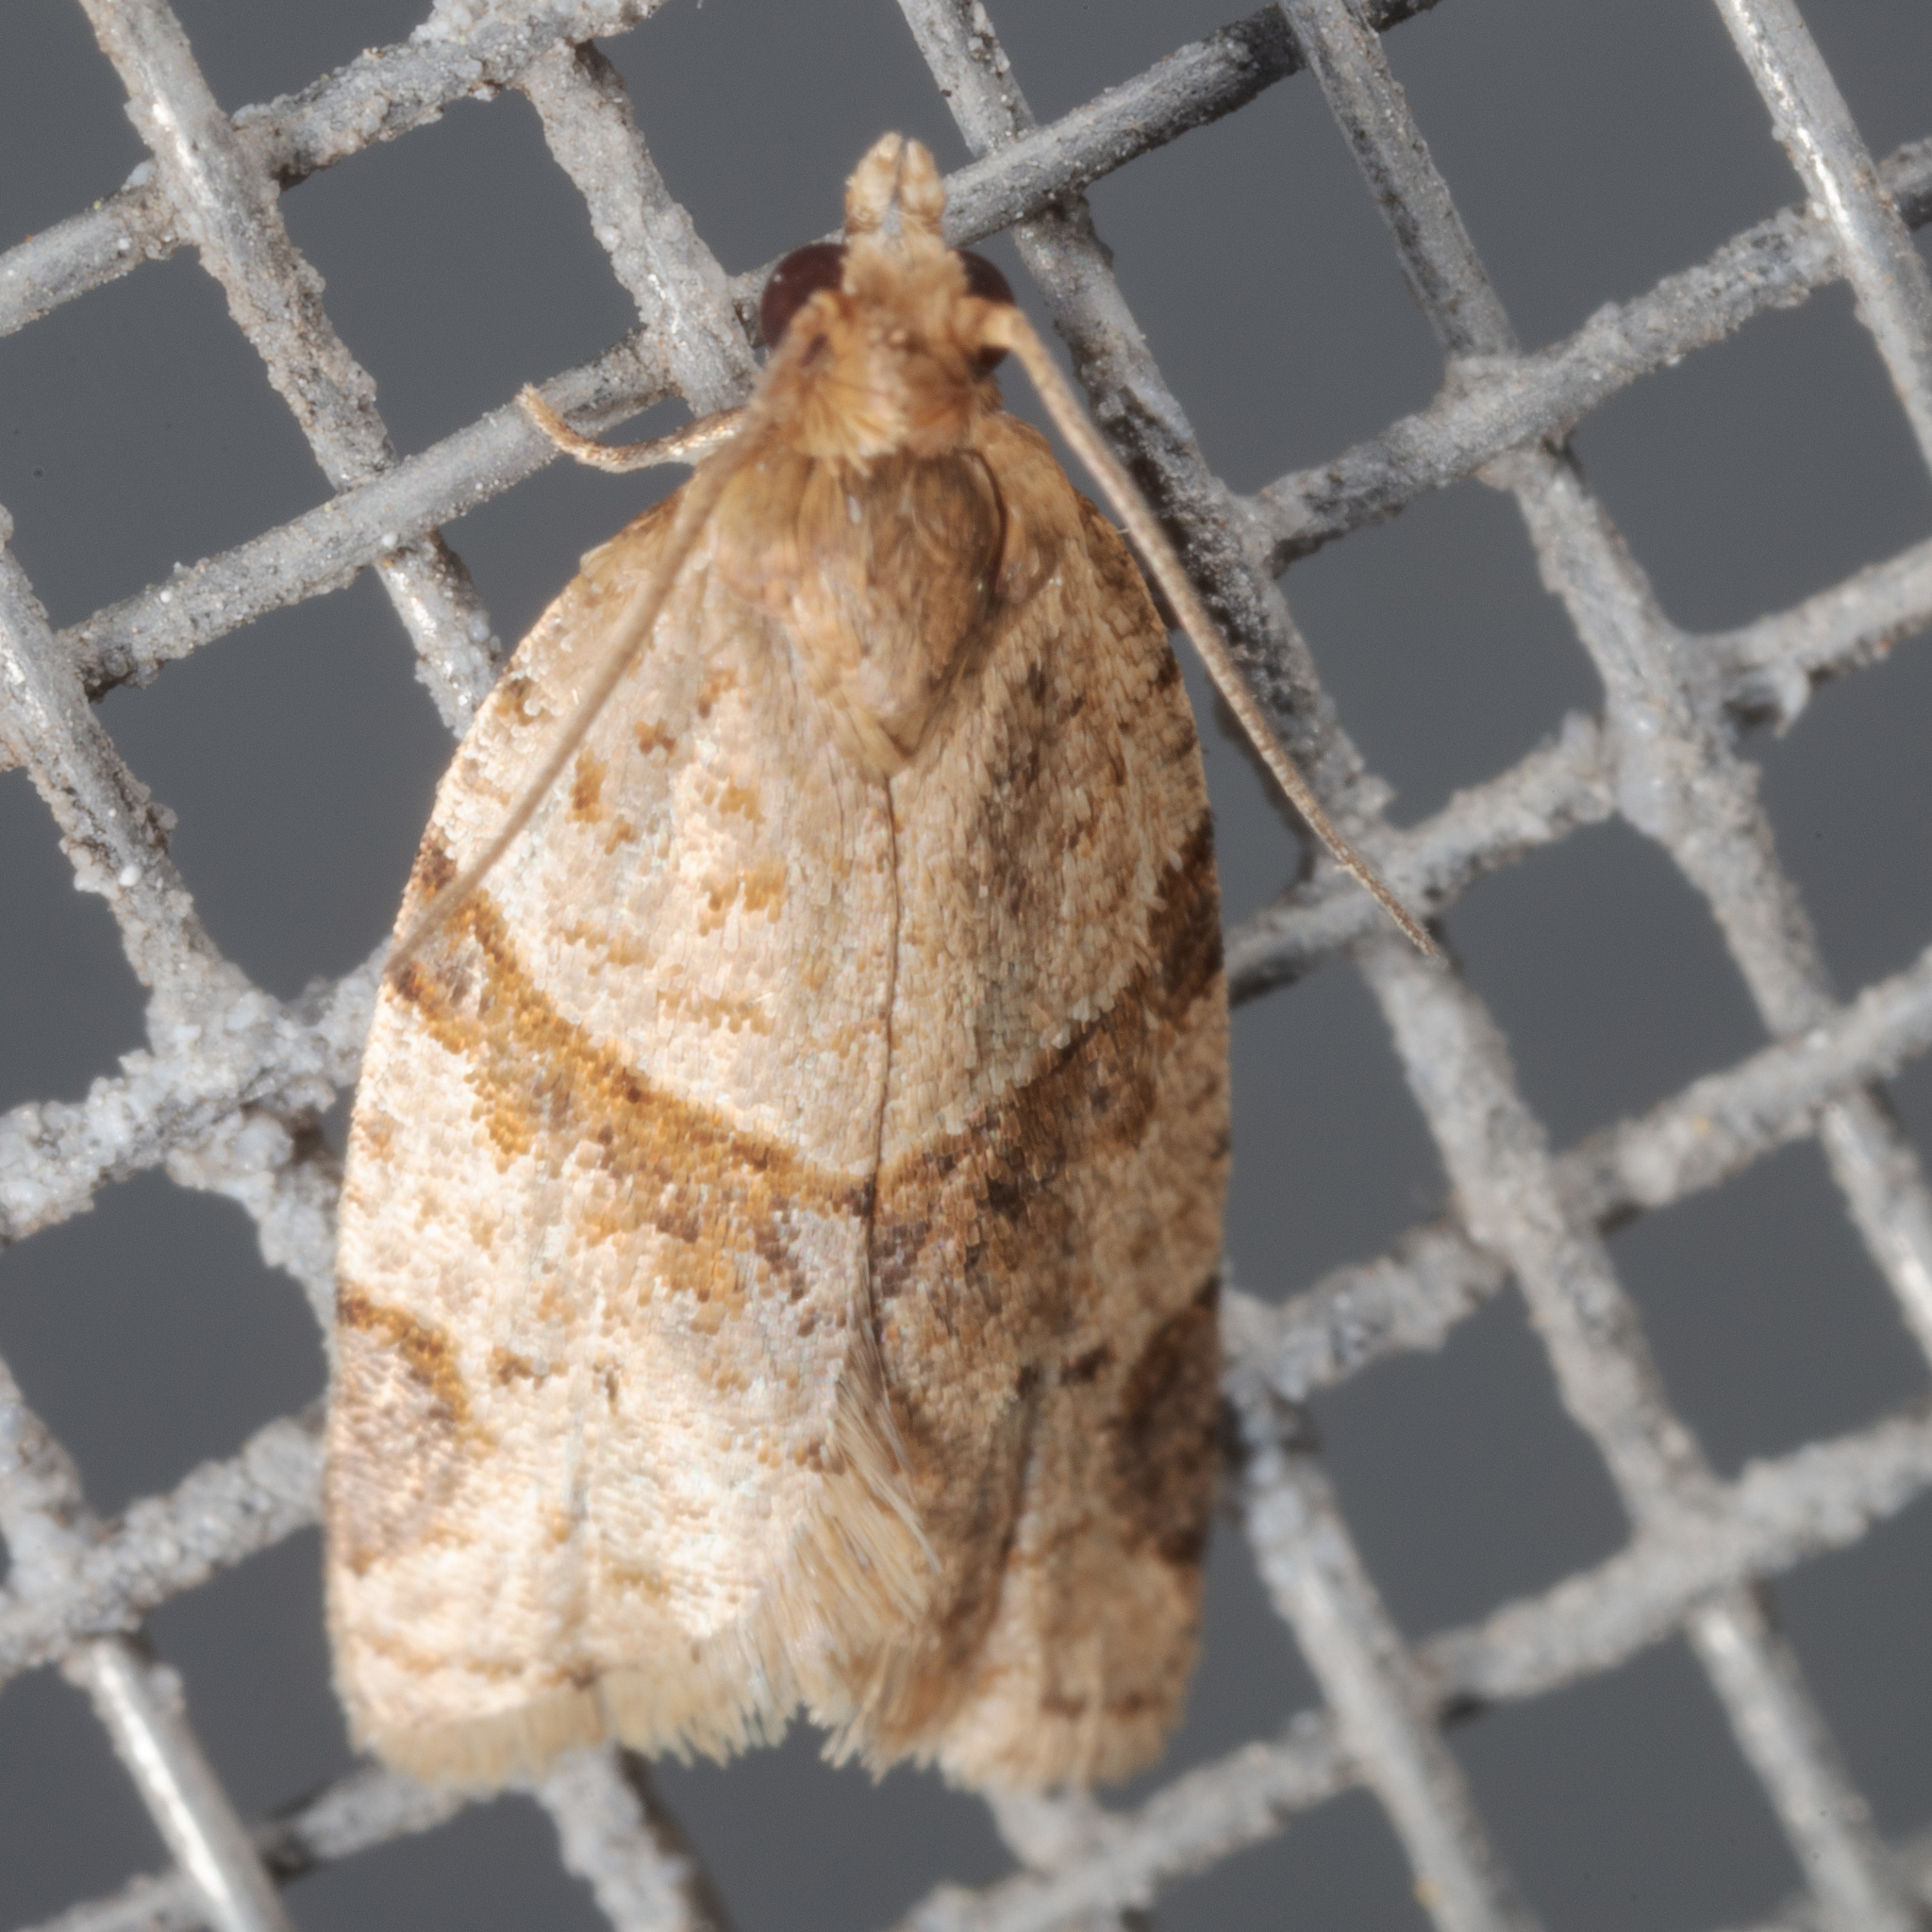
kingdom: Animalia
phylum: Arthropoda
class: Insecta
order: Lepidoptera
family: Tortricidae
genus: Clepsis
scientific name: Clepsis peritana
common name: Garden tortrix
